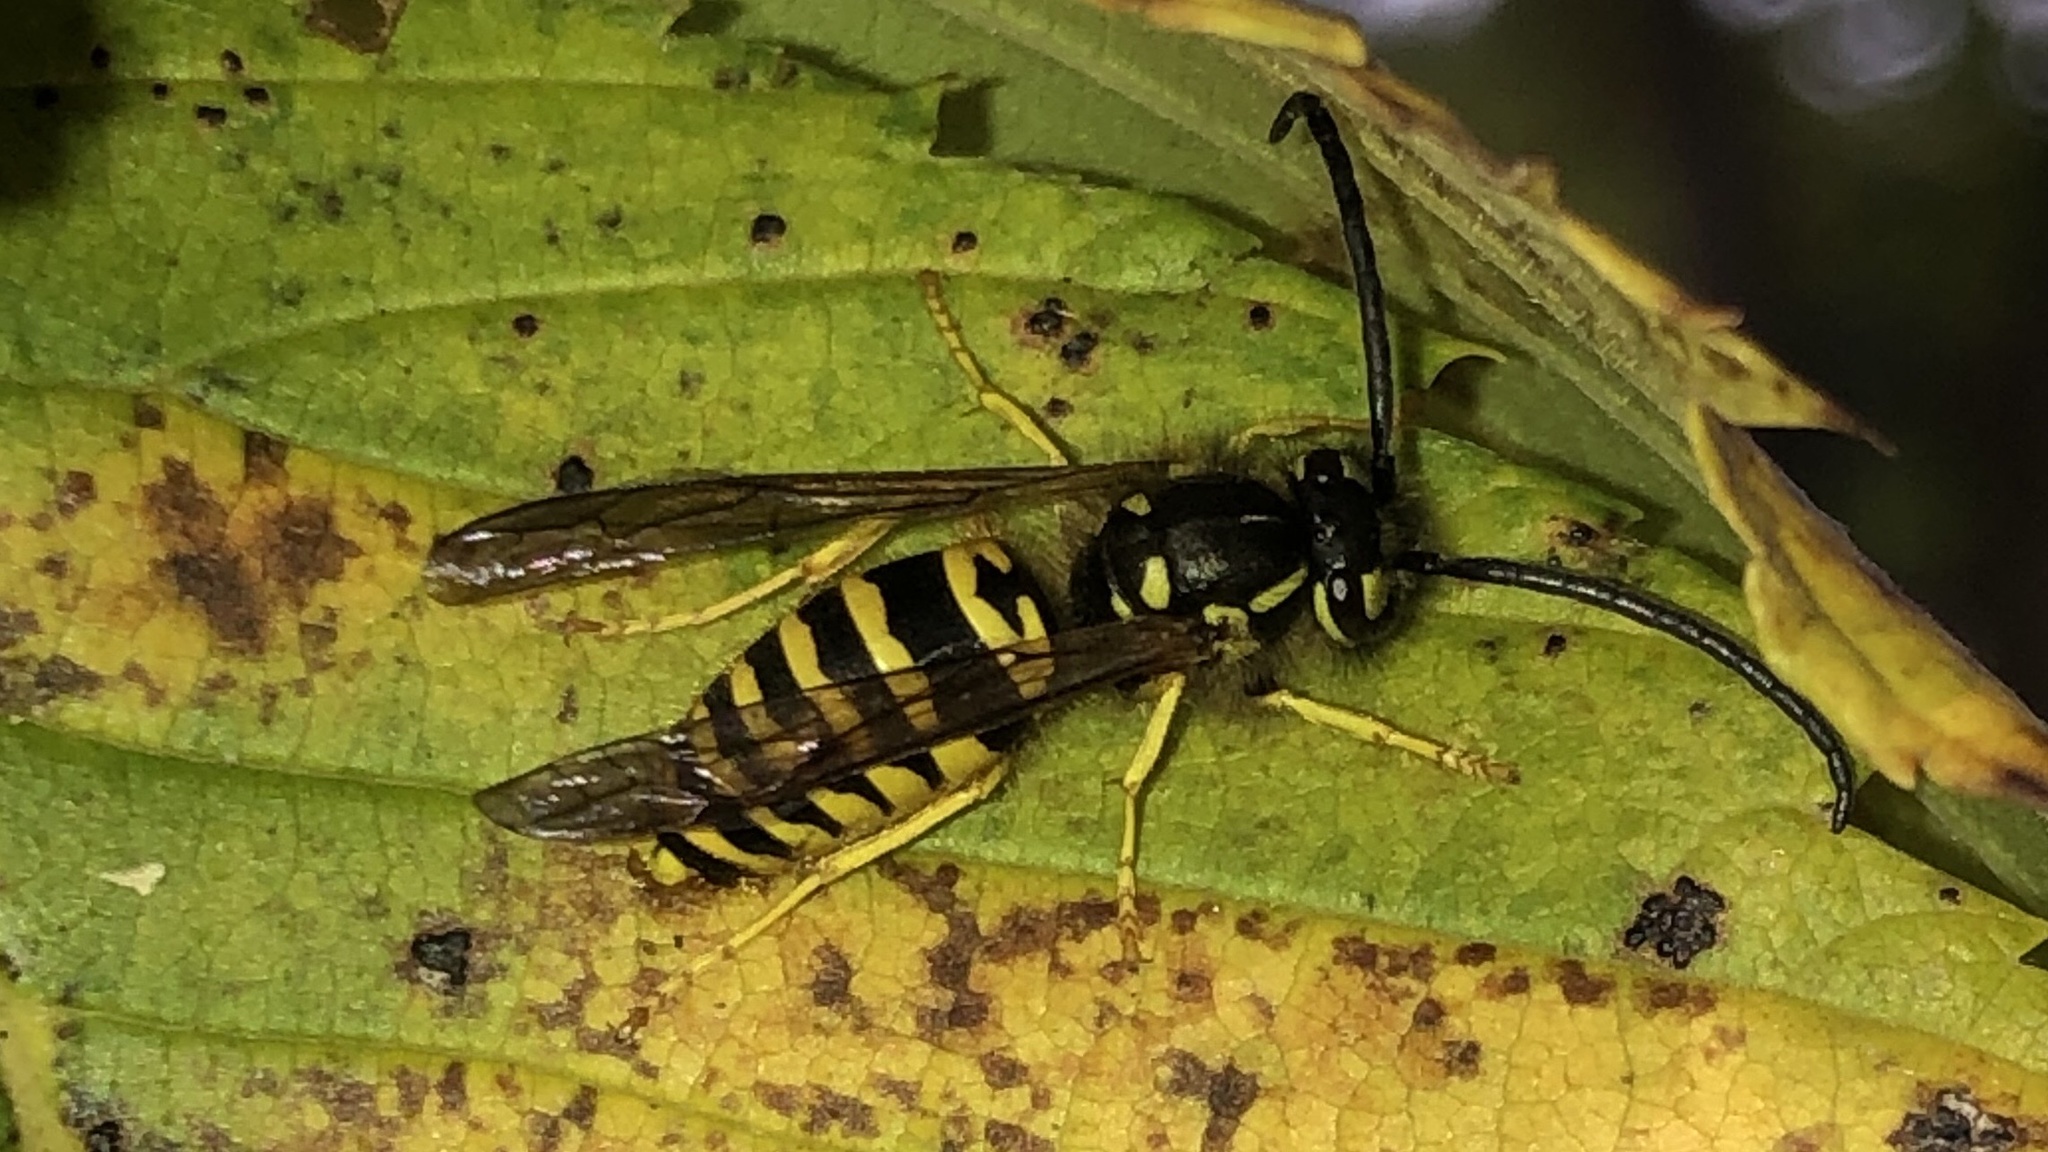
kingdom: Animalia
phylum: Arthropoda
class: Insecta
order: Hymenoptera
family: Vespidae
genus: Vespula
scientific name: Vespula maculifrons
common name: Eastern yellowjacket
